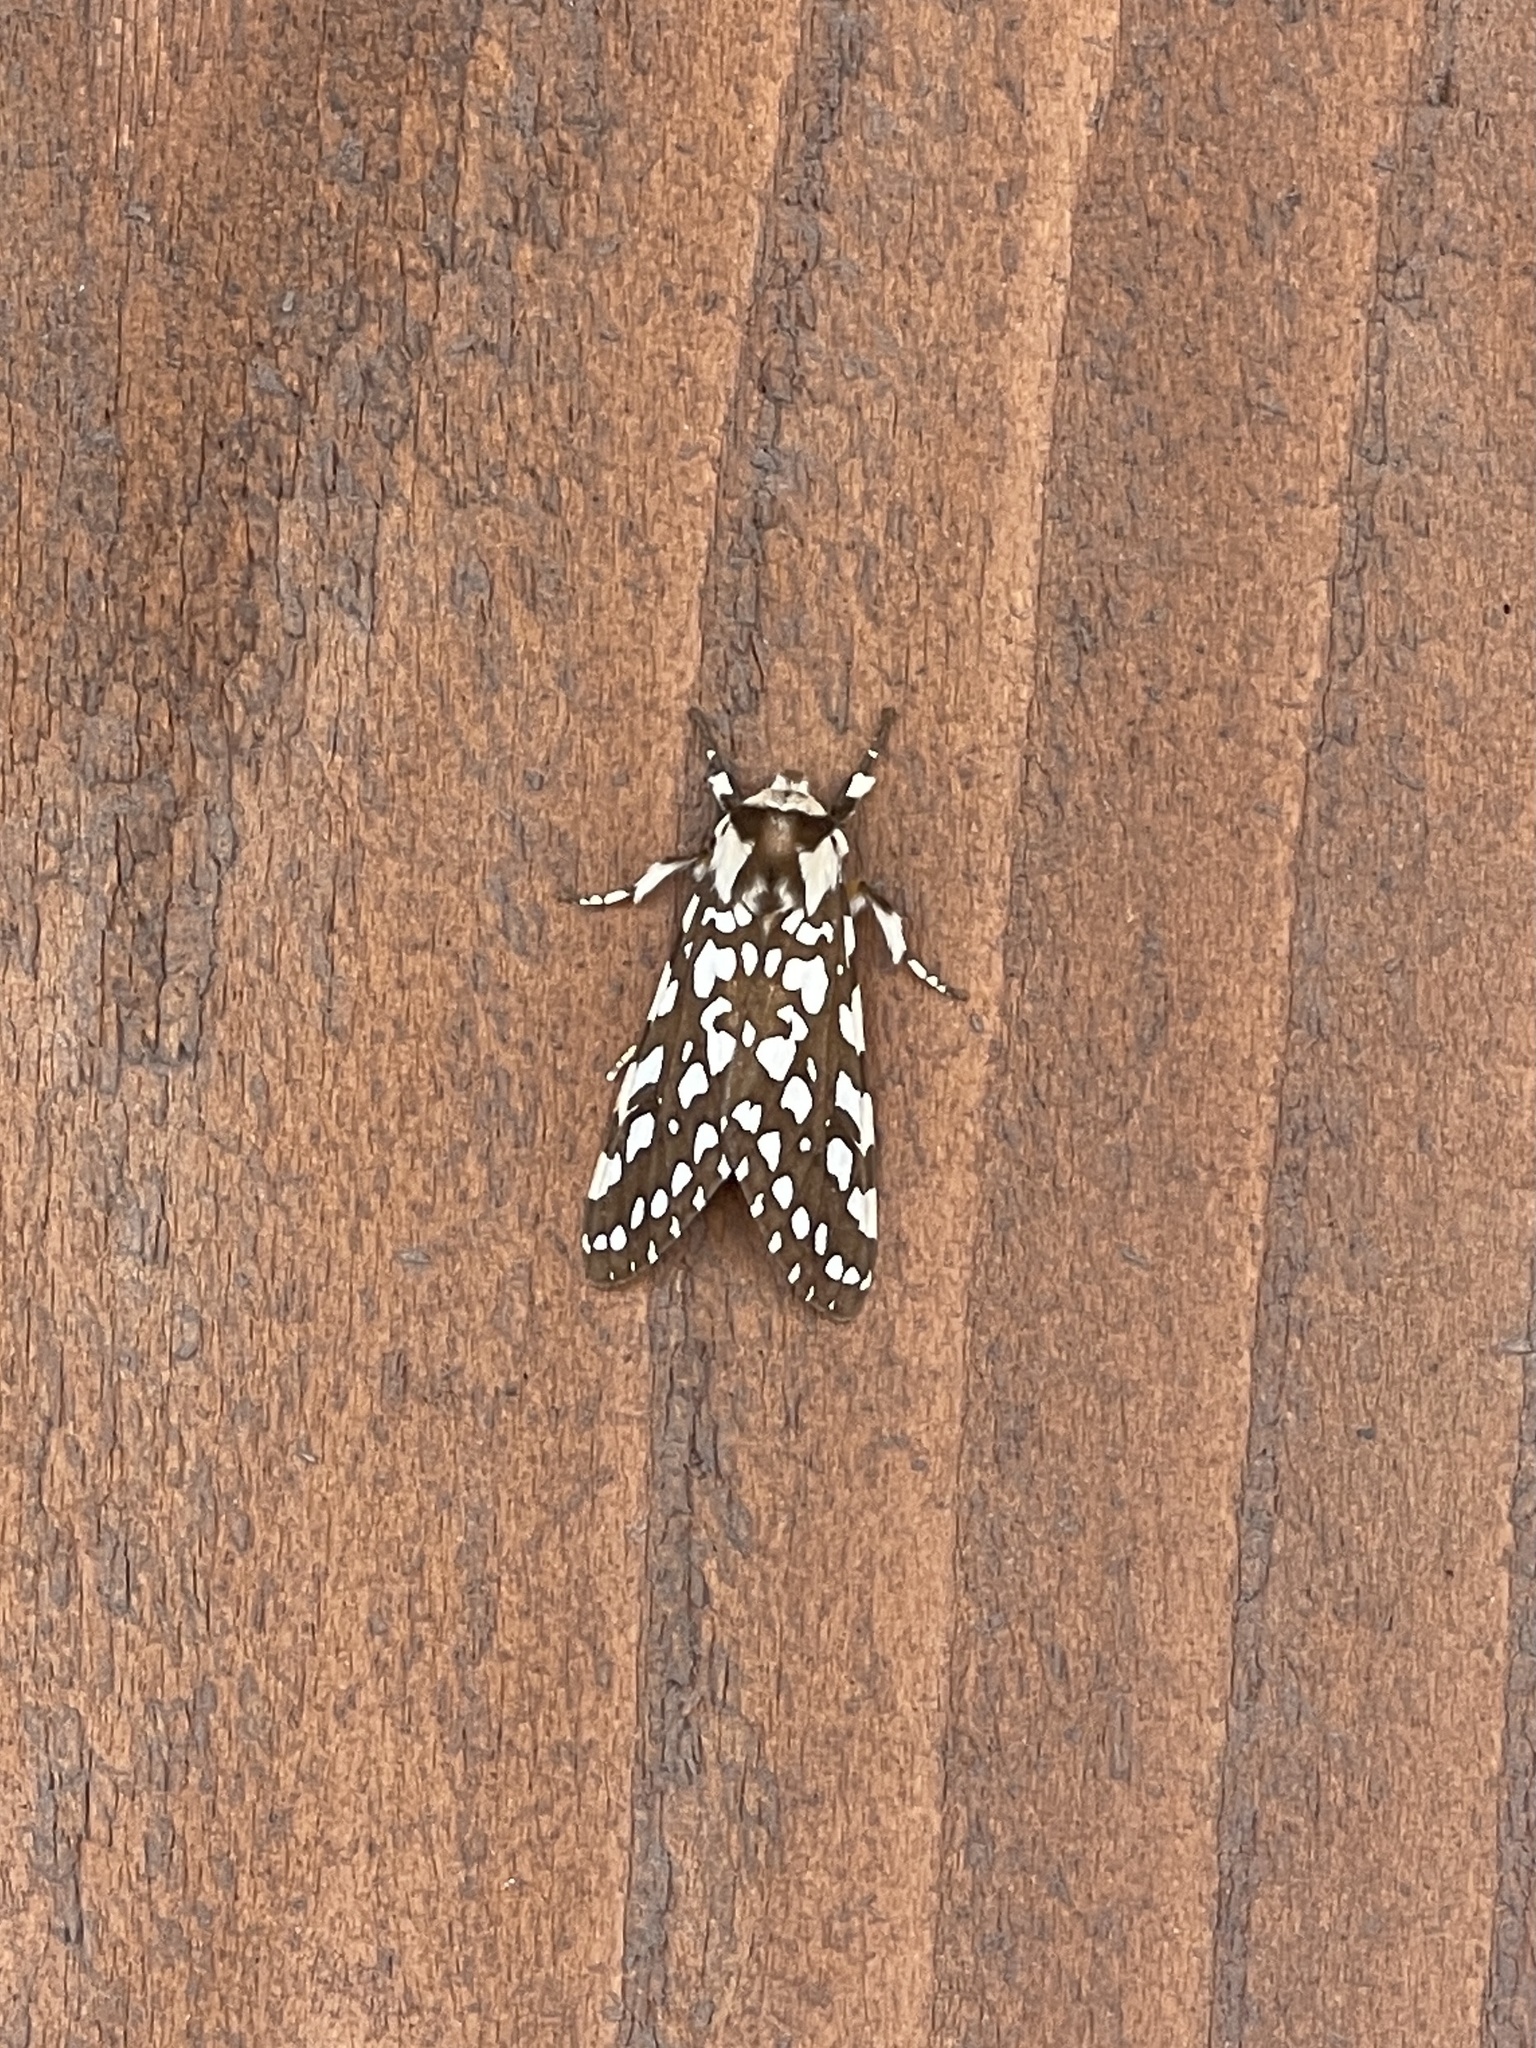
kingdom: Animalia
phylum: Arthropoda
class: Insecta
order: Lepidoptera
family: Erebidae
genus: Lophocampa
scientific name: Lophocampa ingens
